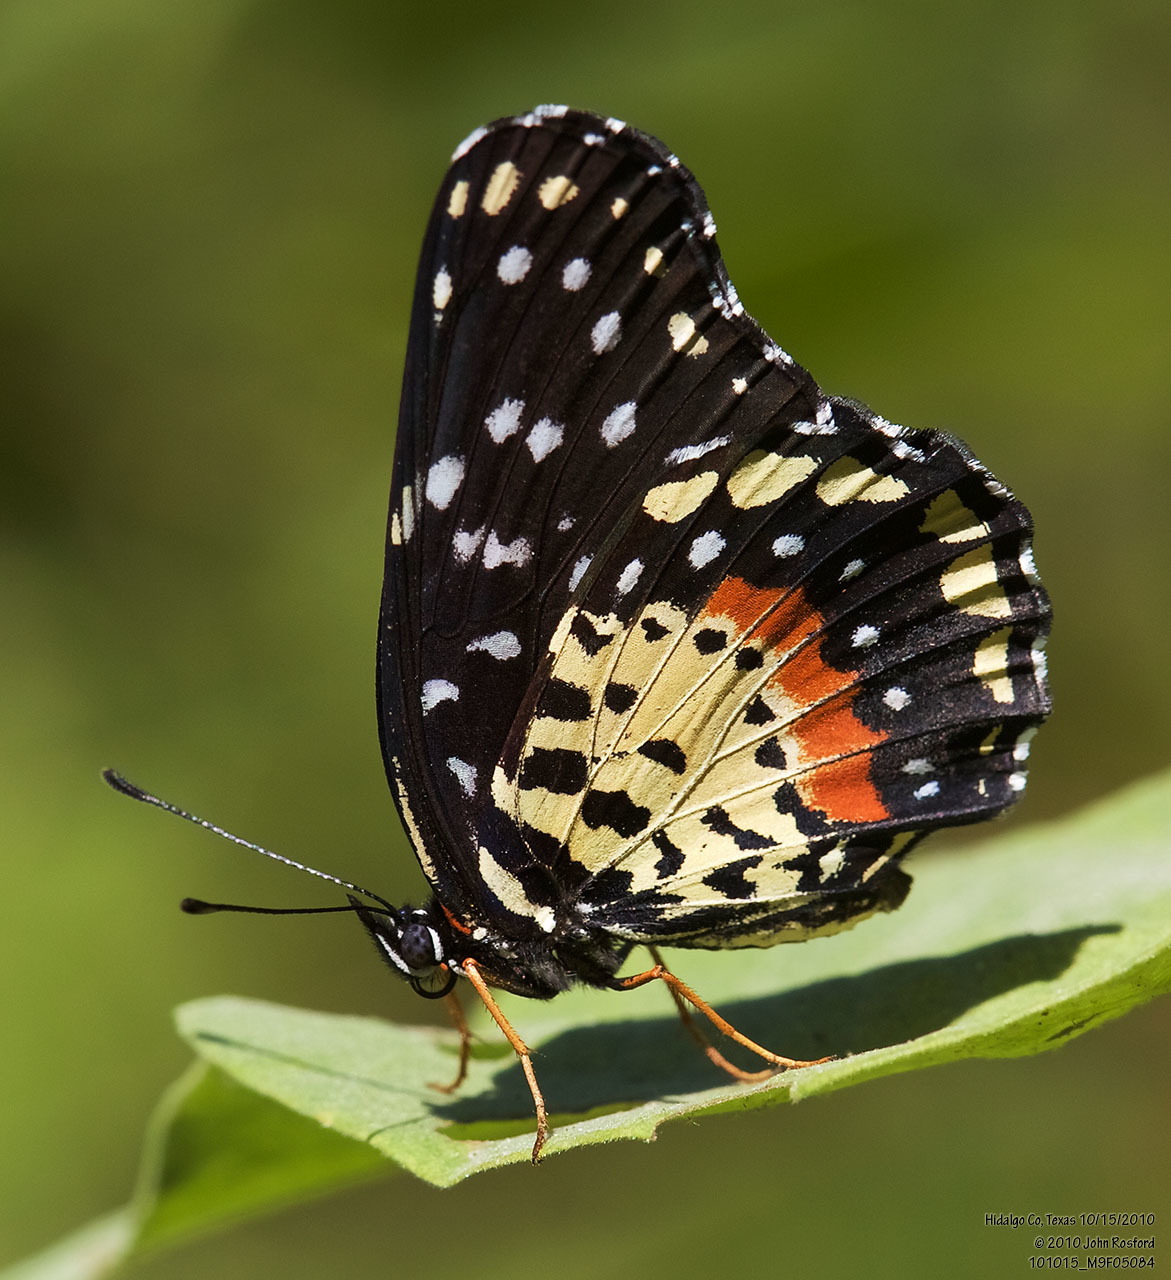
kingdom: Animalia
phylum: Arthropoda
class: Insecta
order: Lepidoptera
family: Nymphalidae
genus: Chlosyne
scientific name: Chlosyne janais
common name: Crimson patch
